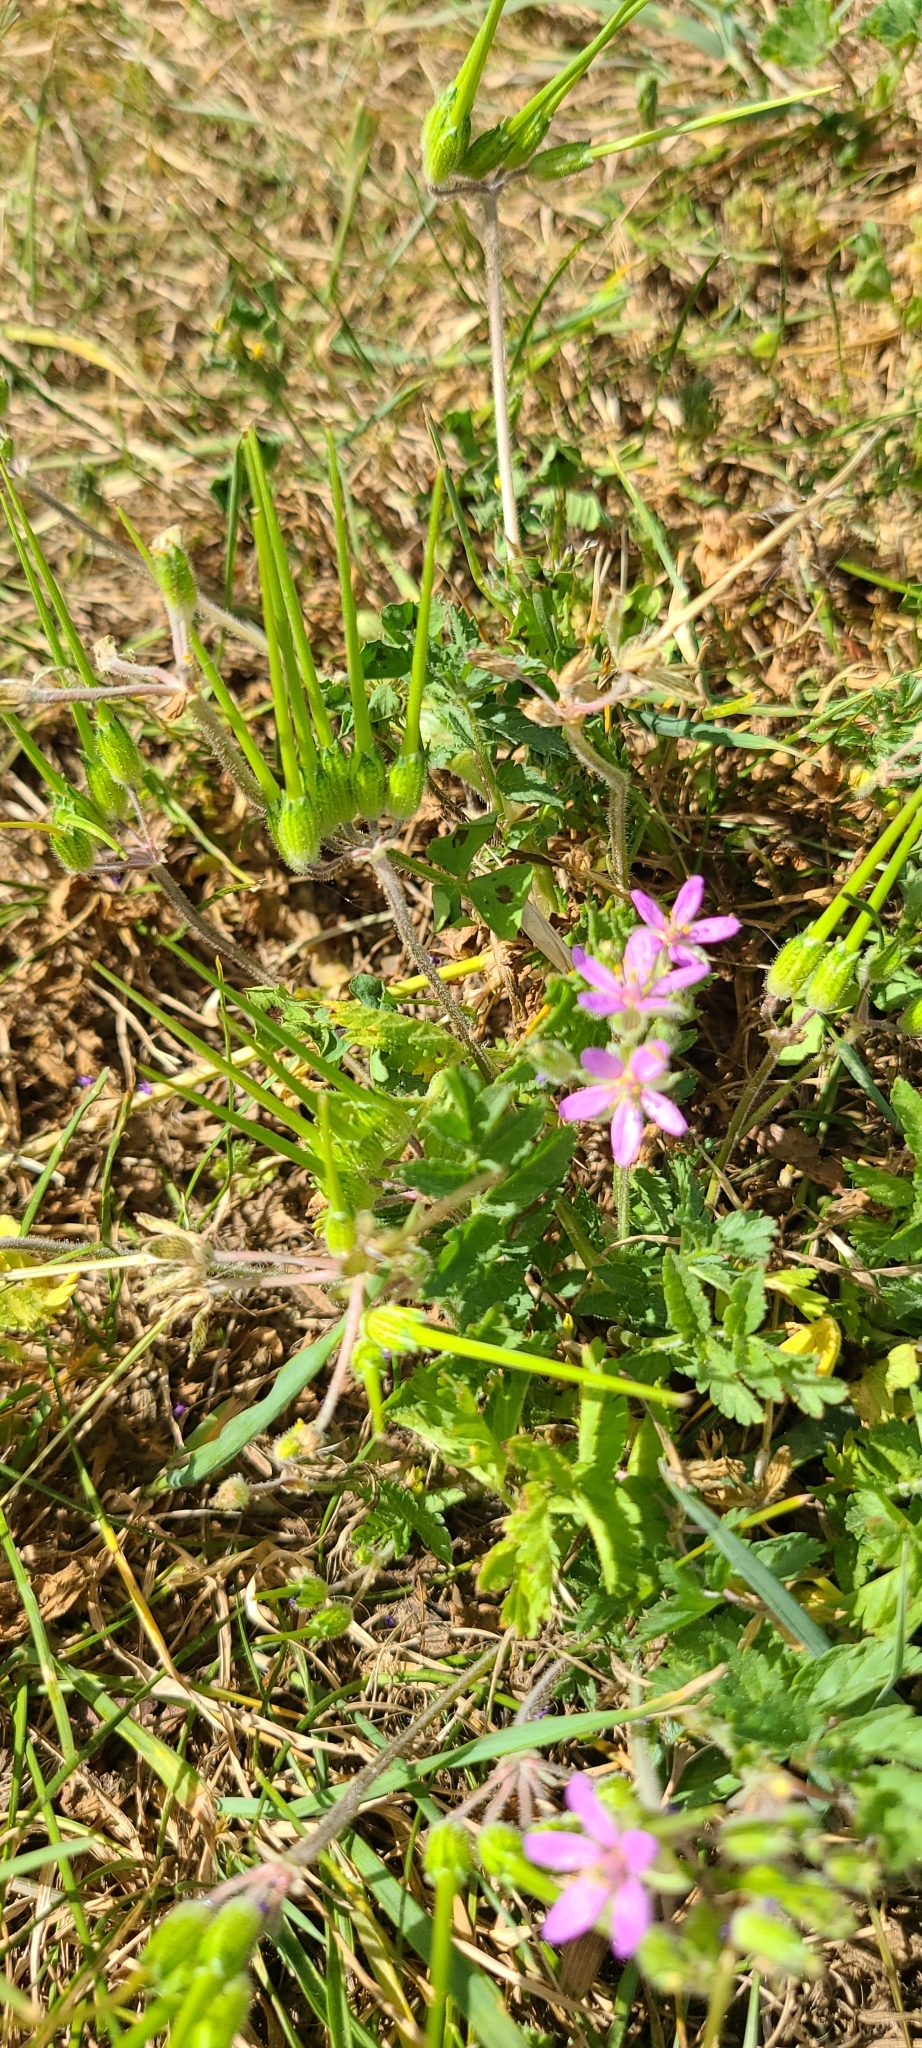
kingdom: Plantae
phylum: Tracheophyta
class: Magnoliopsida
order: Geraniales
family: Geraniaceae
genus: Erodium
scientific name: Erodium moschatum
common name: Musk stork's-bill
